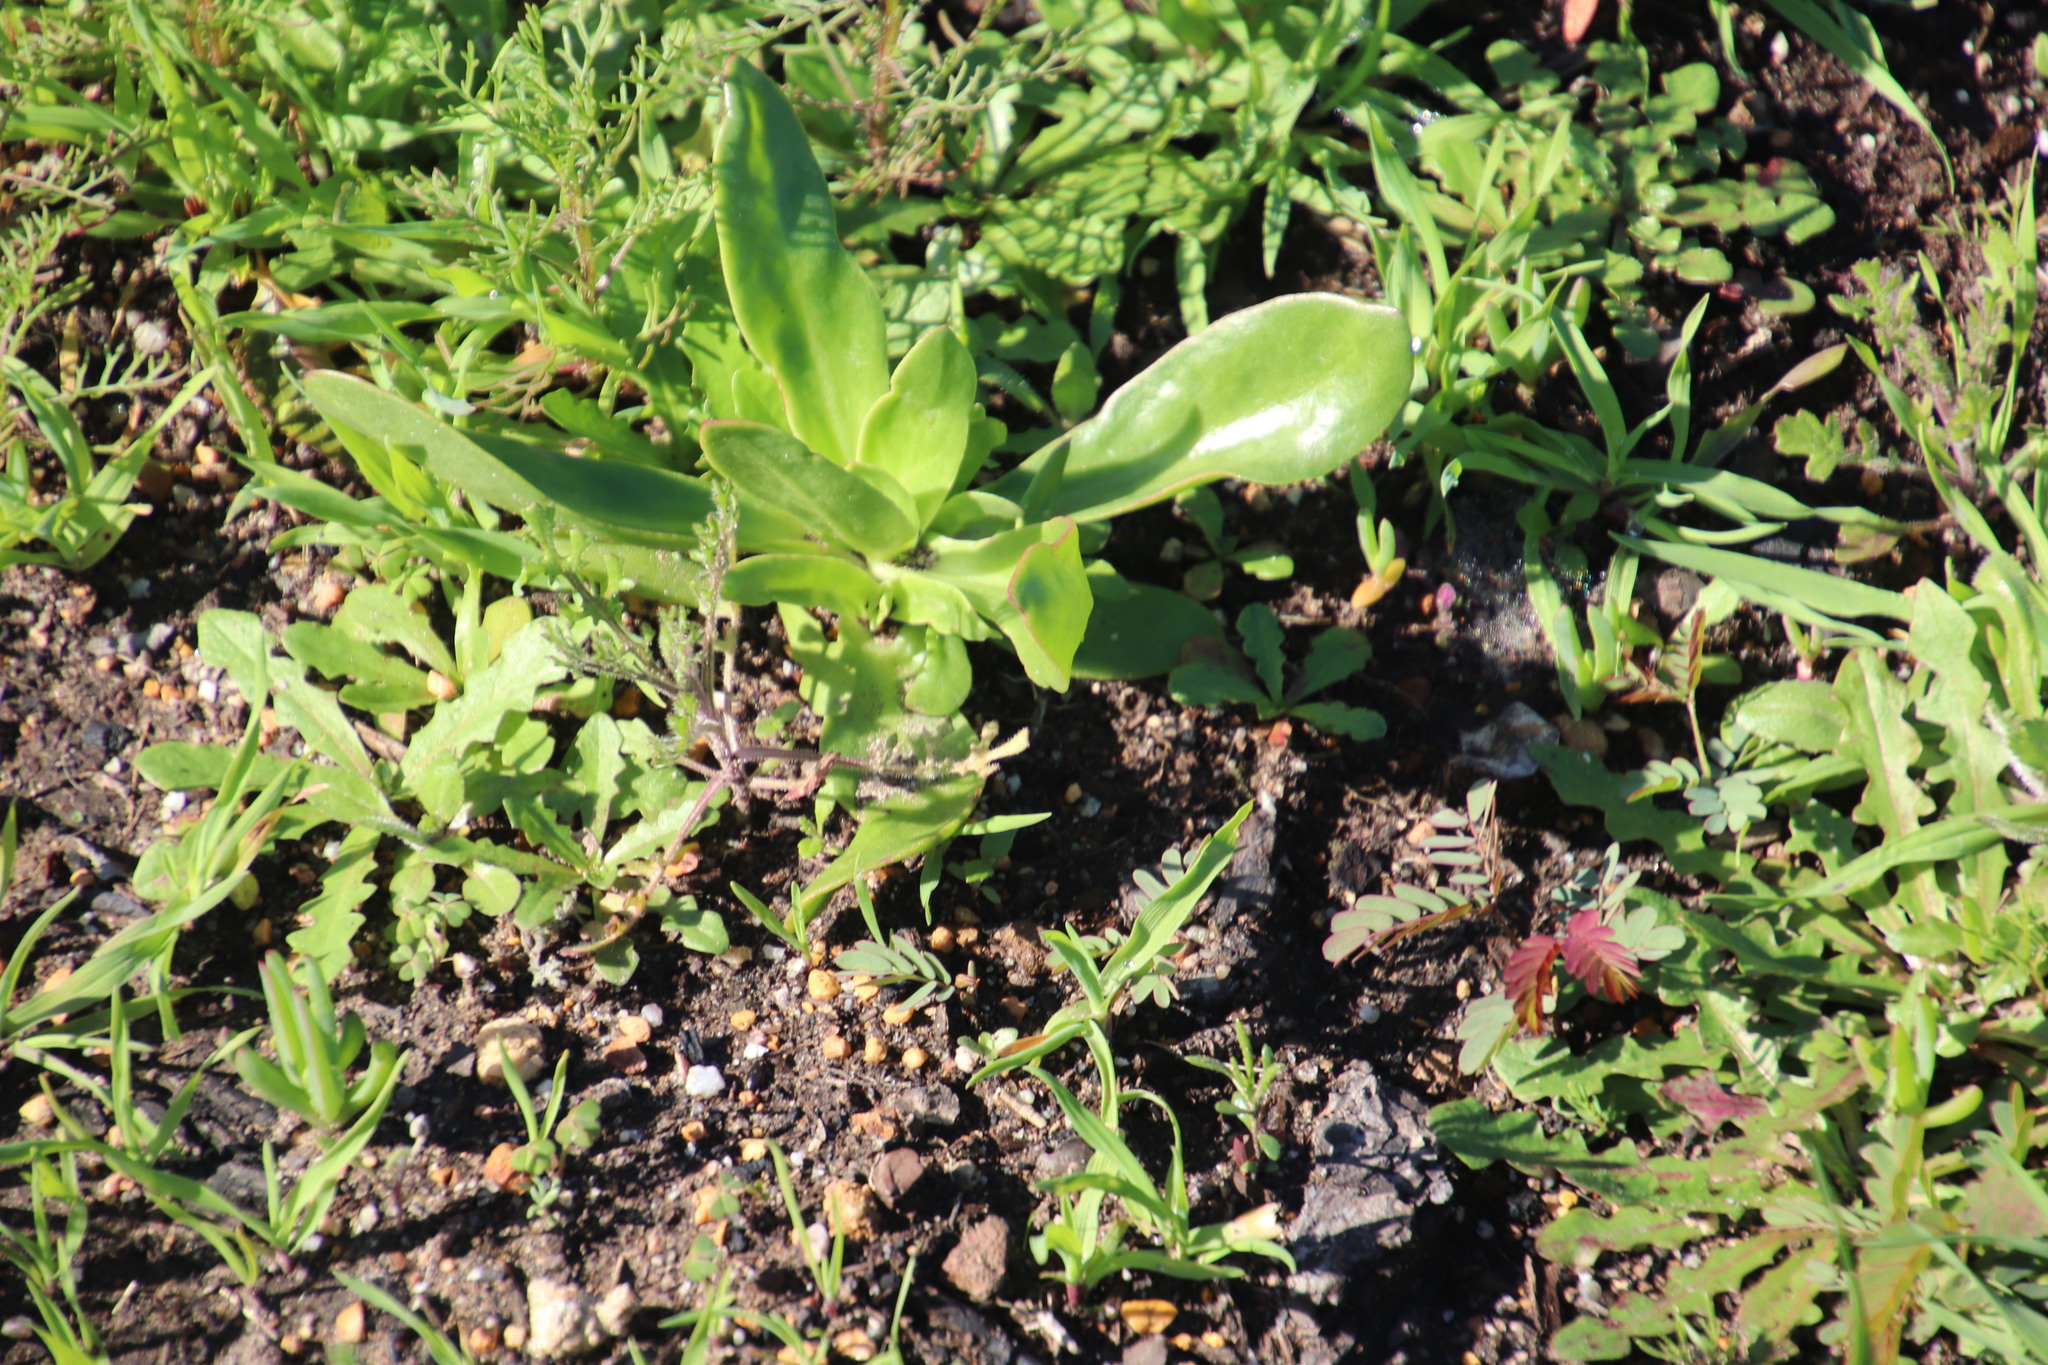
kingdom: Plantae
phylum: Tracheophyta
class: Magnoliopsida
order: Caryophyllales
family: Aizoaceae
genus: Skiatophytum
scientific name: Skiatophytum tripolium
